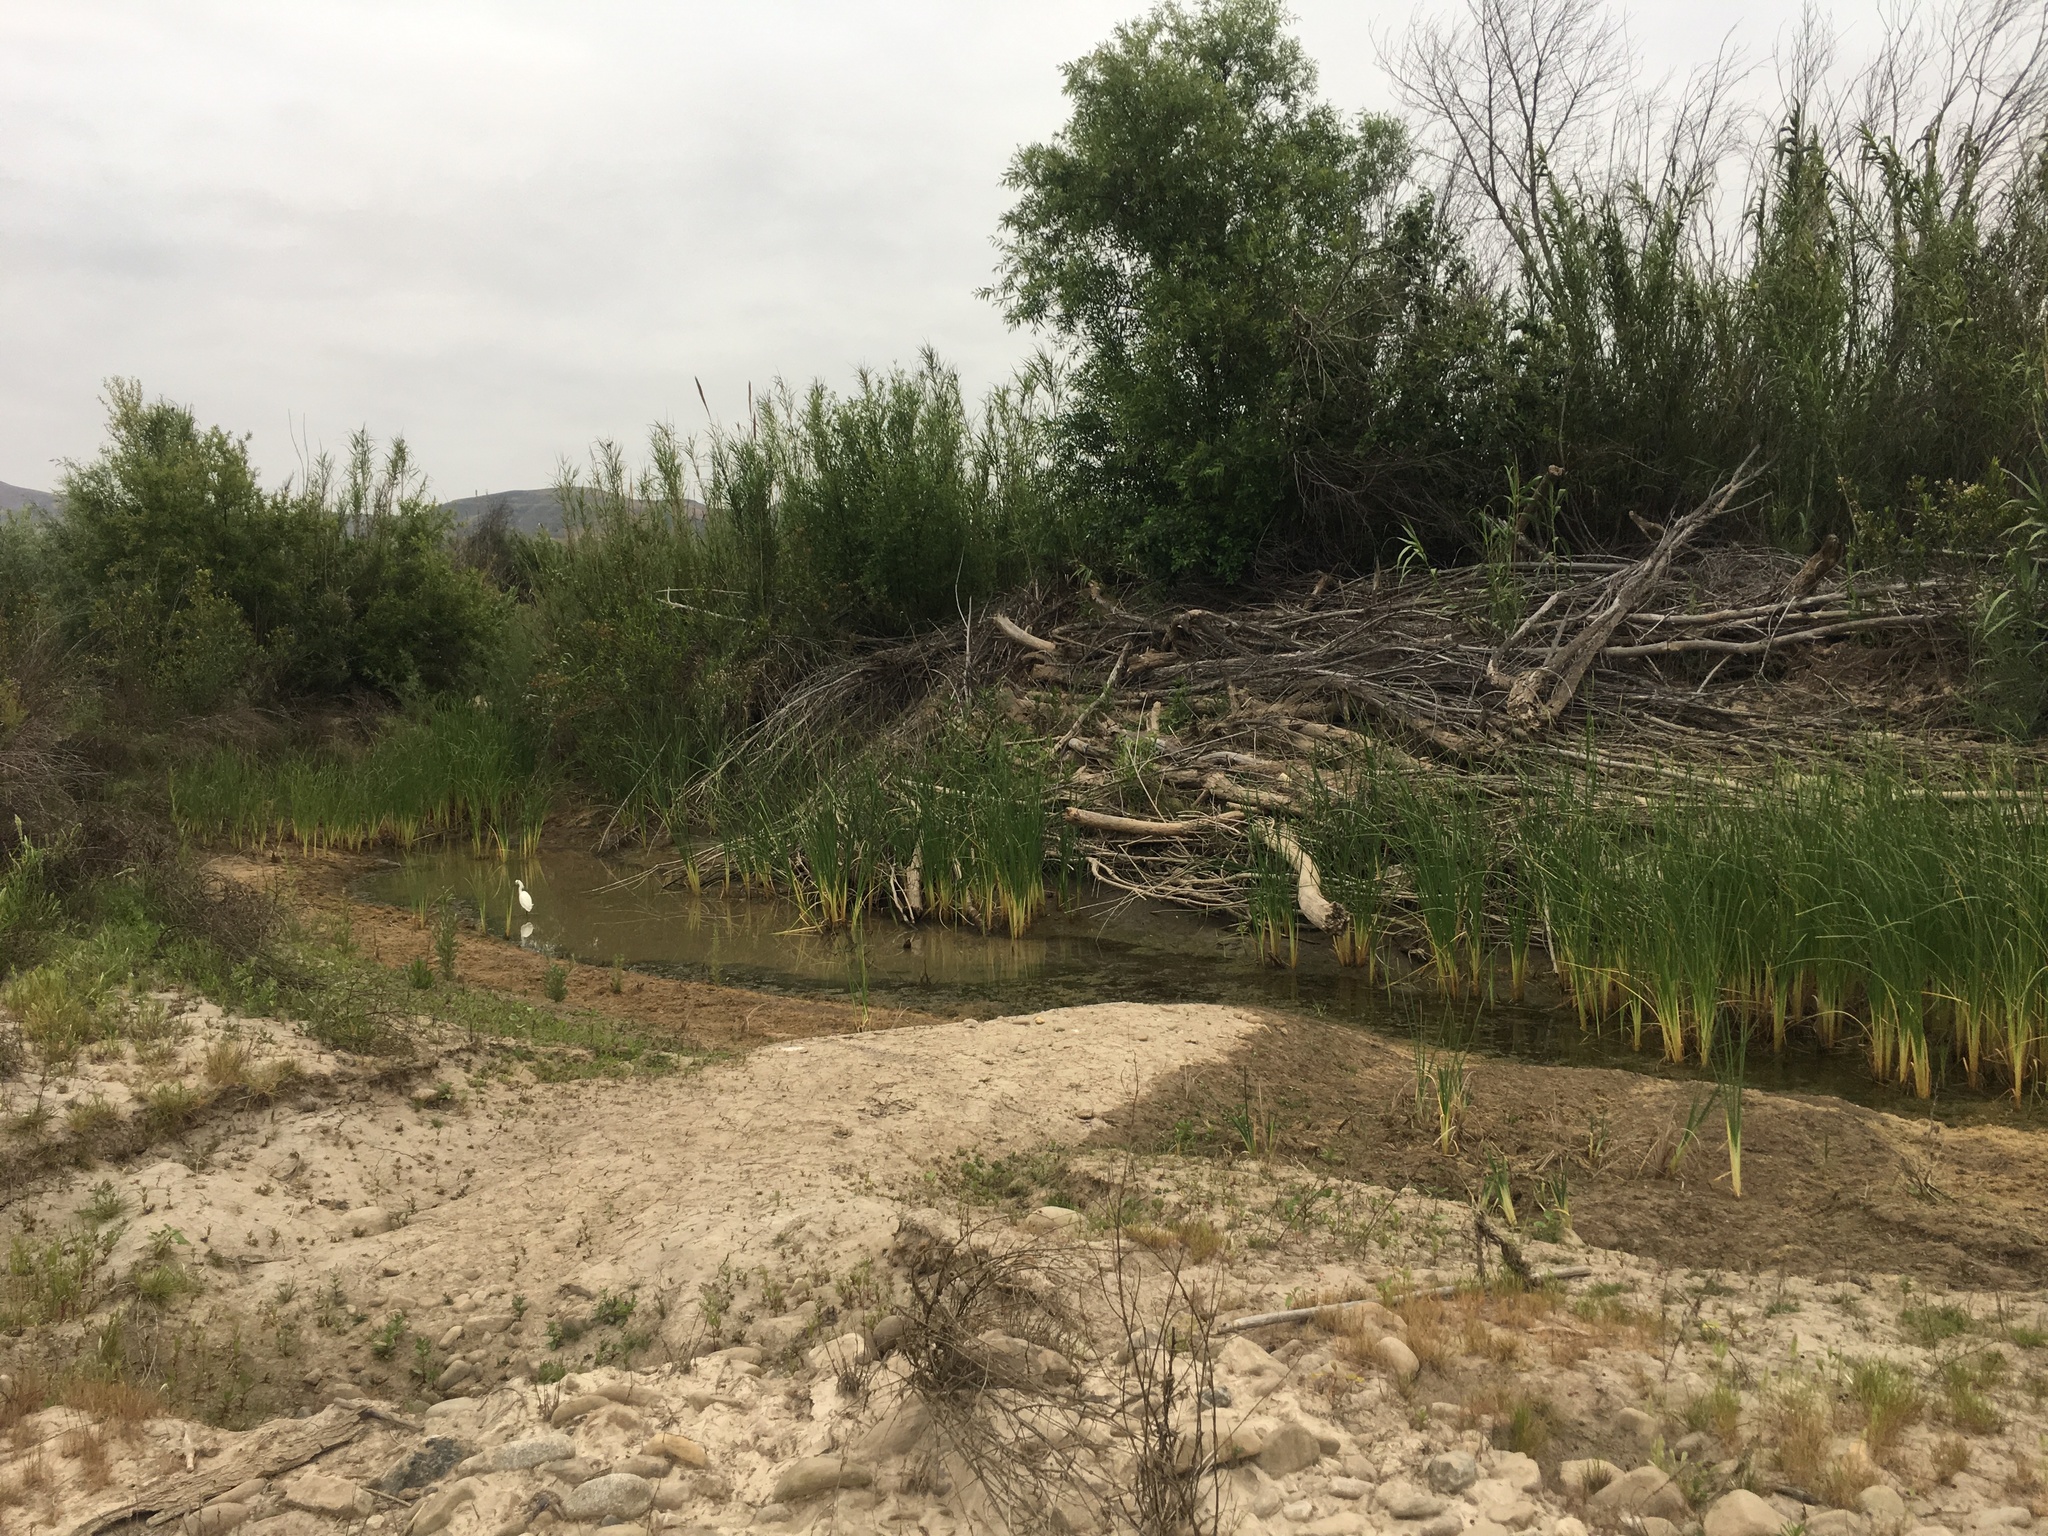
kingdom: Animalia
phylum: Chordata
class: Aves
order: Pelecaniformes
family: Ardeidae
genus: Egretta
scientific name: Egretta thula
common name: Snowy egret
